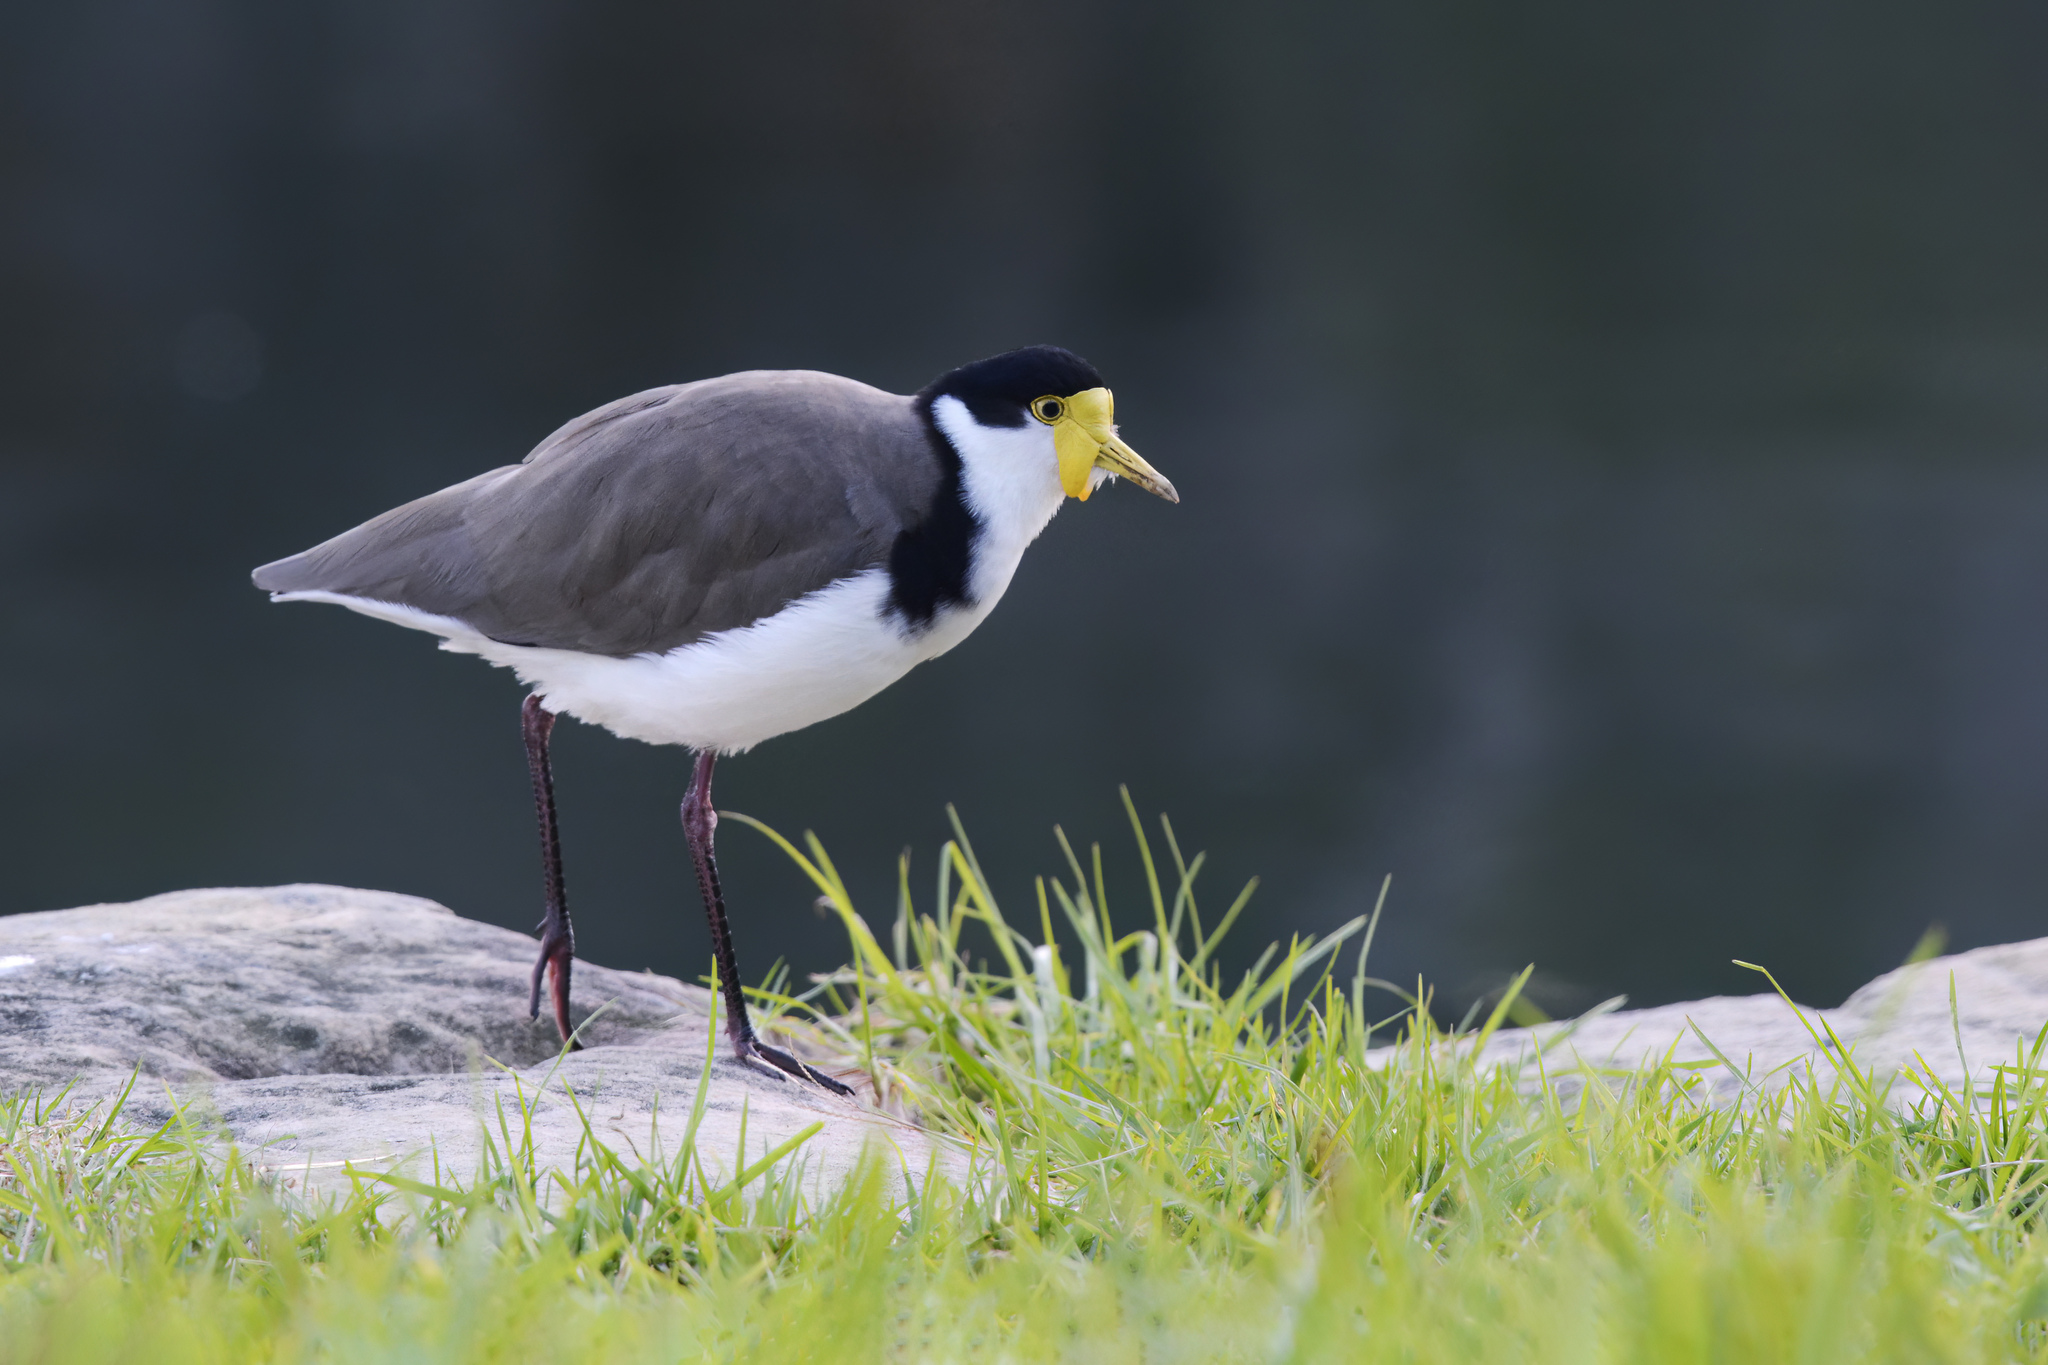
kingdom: Animalia
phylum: Chordata
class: Aves
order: Charadriiformes
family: Charadriidae
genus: Vanellus
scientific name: Vanellus miles
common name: Masked lapwing
